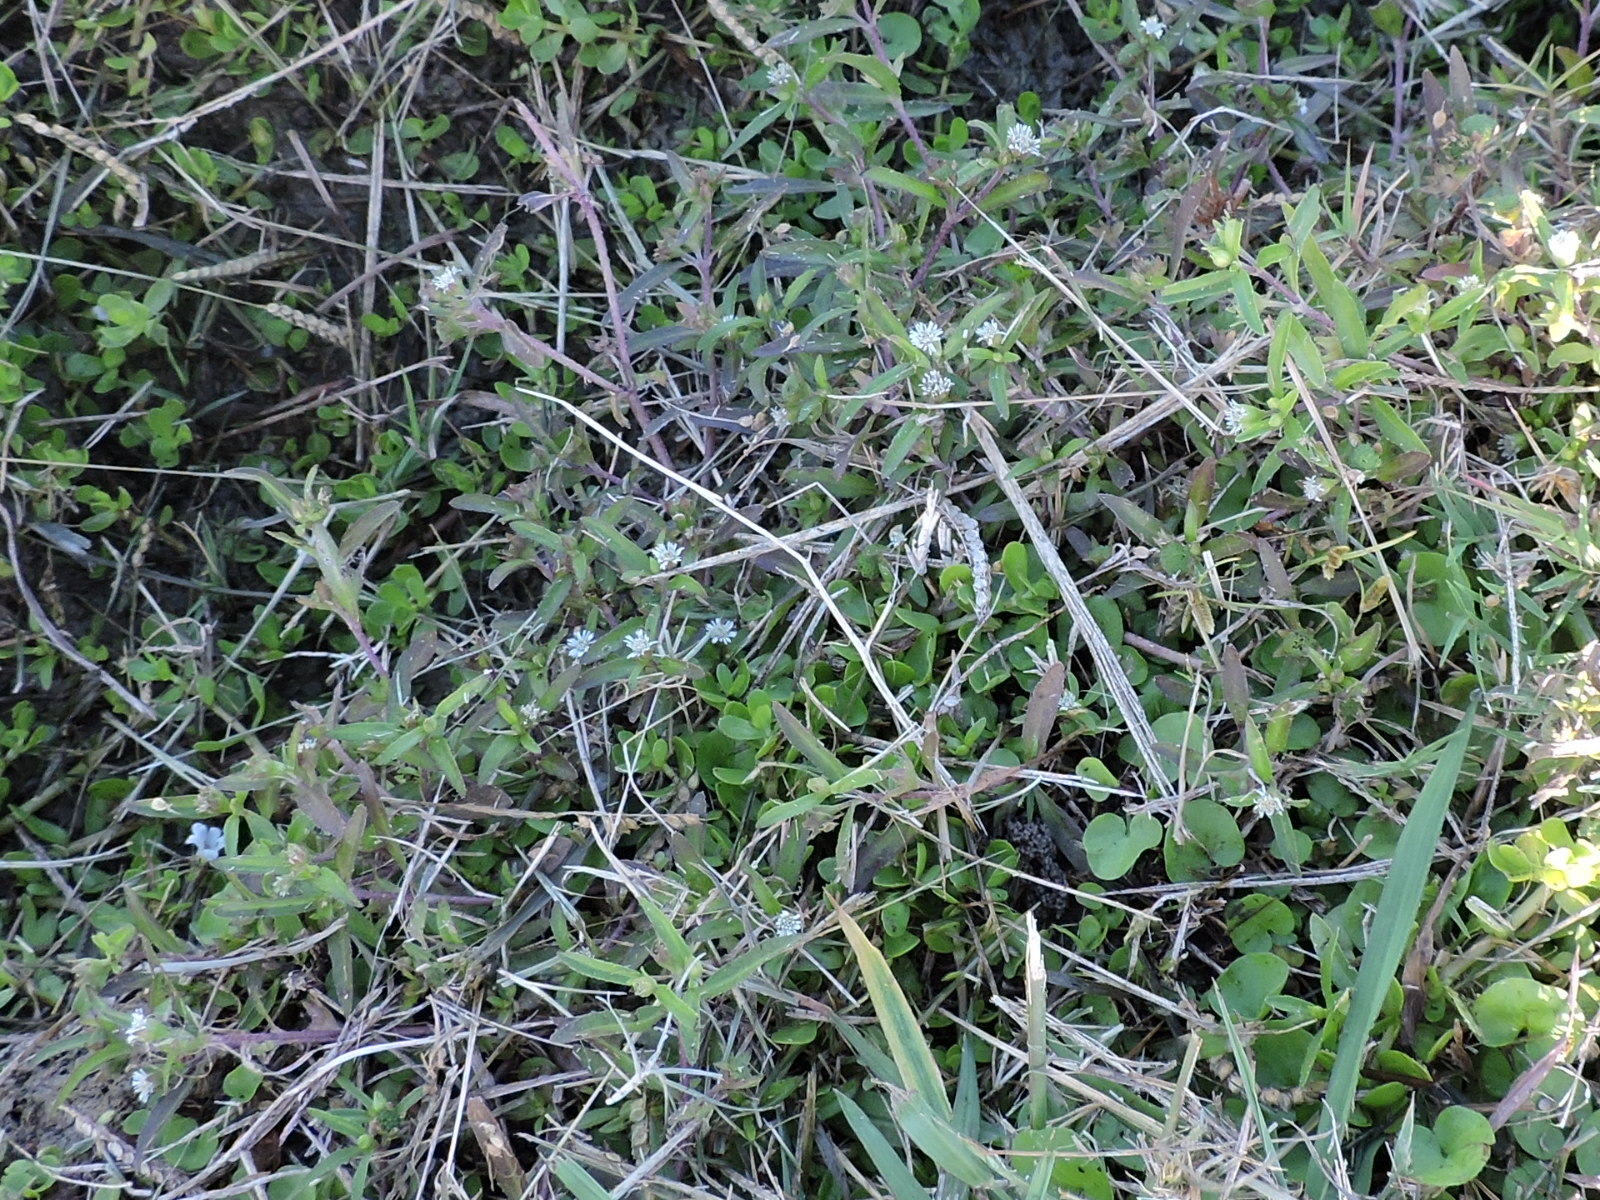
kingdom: Plantae
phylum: Tracheophyta
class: Magnoliopsida
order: Asterales
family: Asteraceae
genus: Eclipta
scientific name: Eclipta prostrata
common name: False daisy
